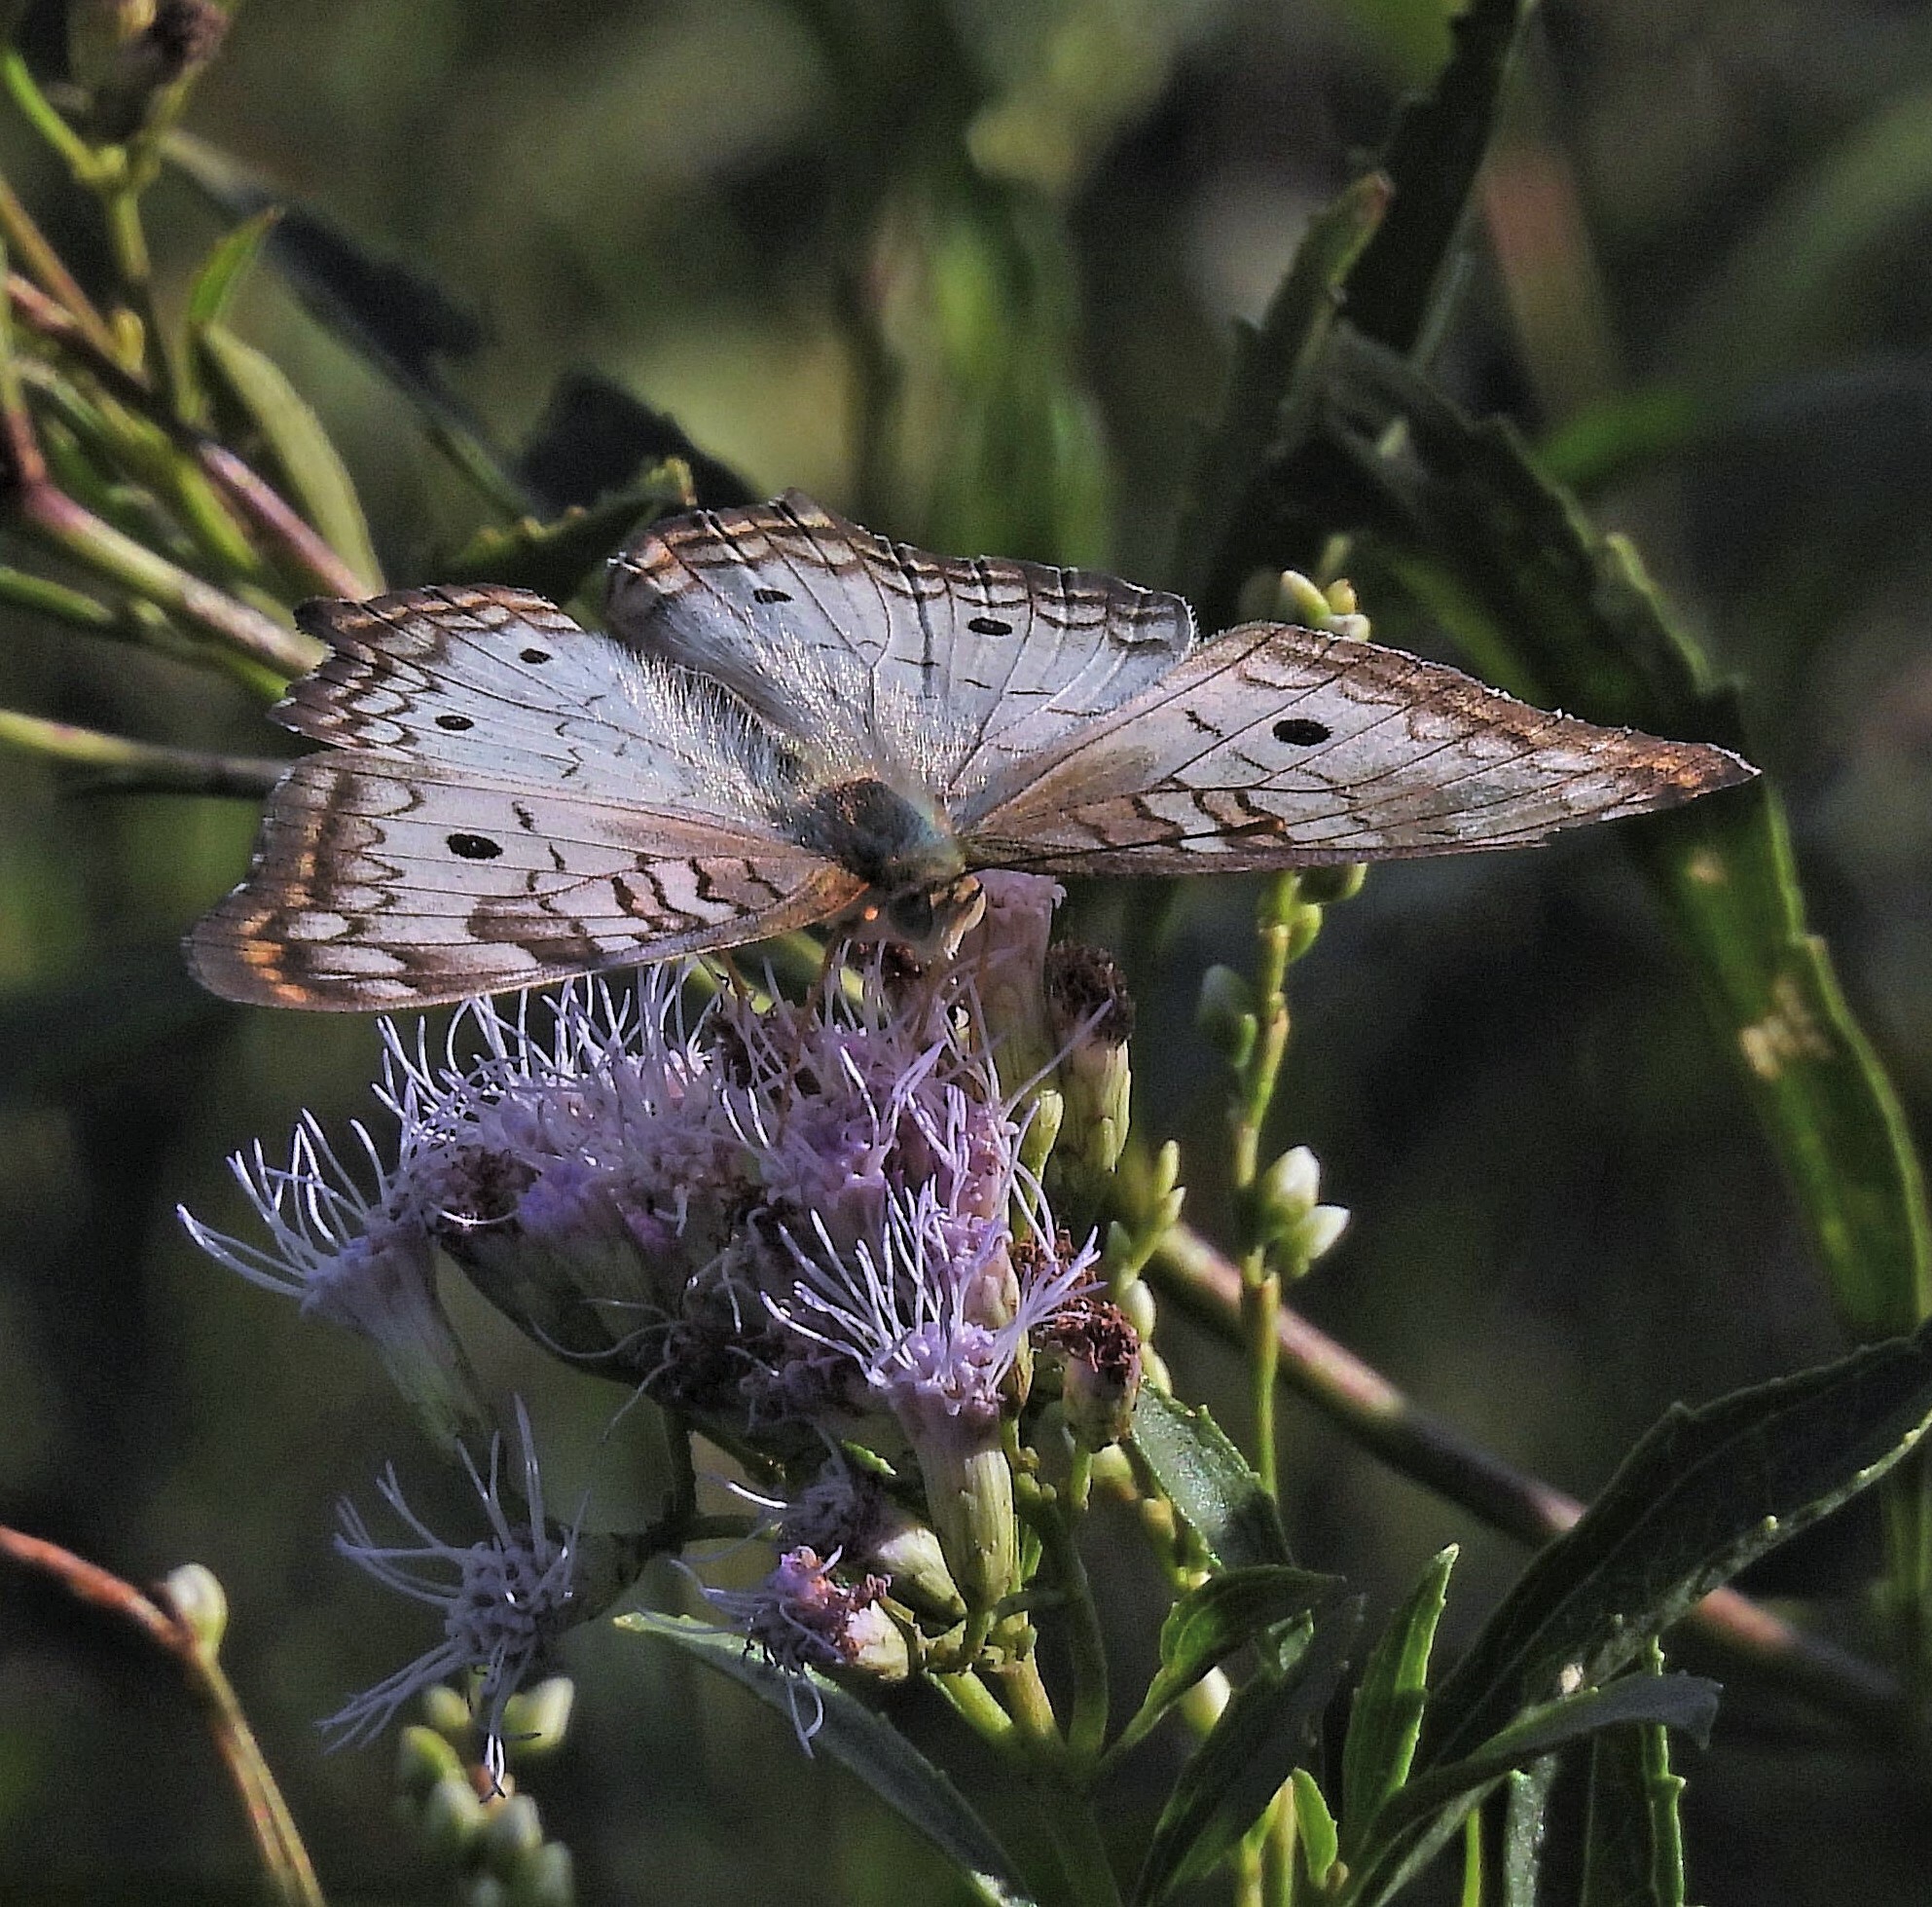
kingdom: Animalia
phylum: Arthropoda
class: Insecta
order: Lepidoptera
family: Nymphalidae
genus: Anartia
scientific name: Anartia jatrophae
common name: White peacock
